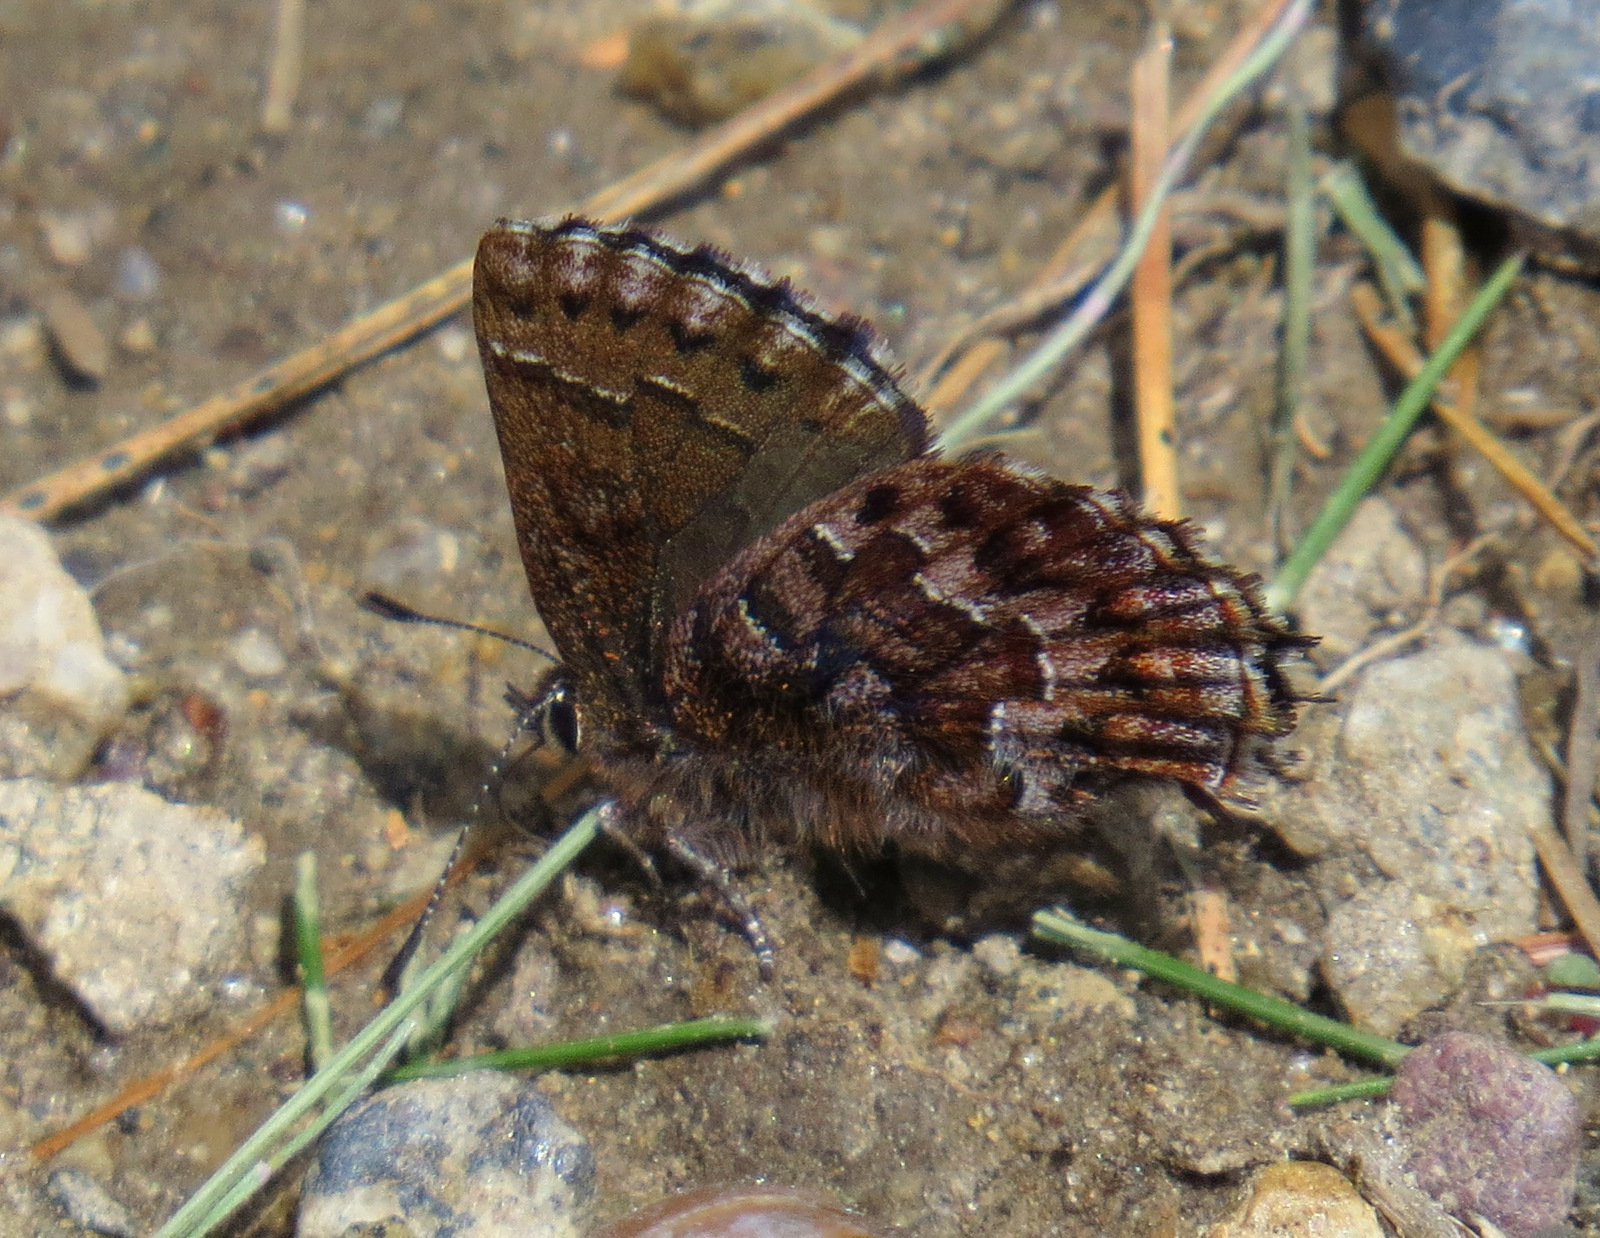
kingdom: Animalia
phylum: Arthropoda
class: Insecta
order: Lepidoptera
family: Lycaenidae
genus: Incisalia
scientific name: Incisalia niphon
